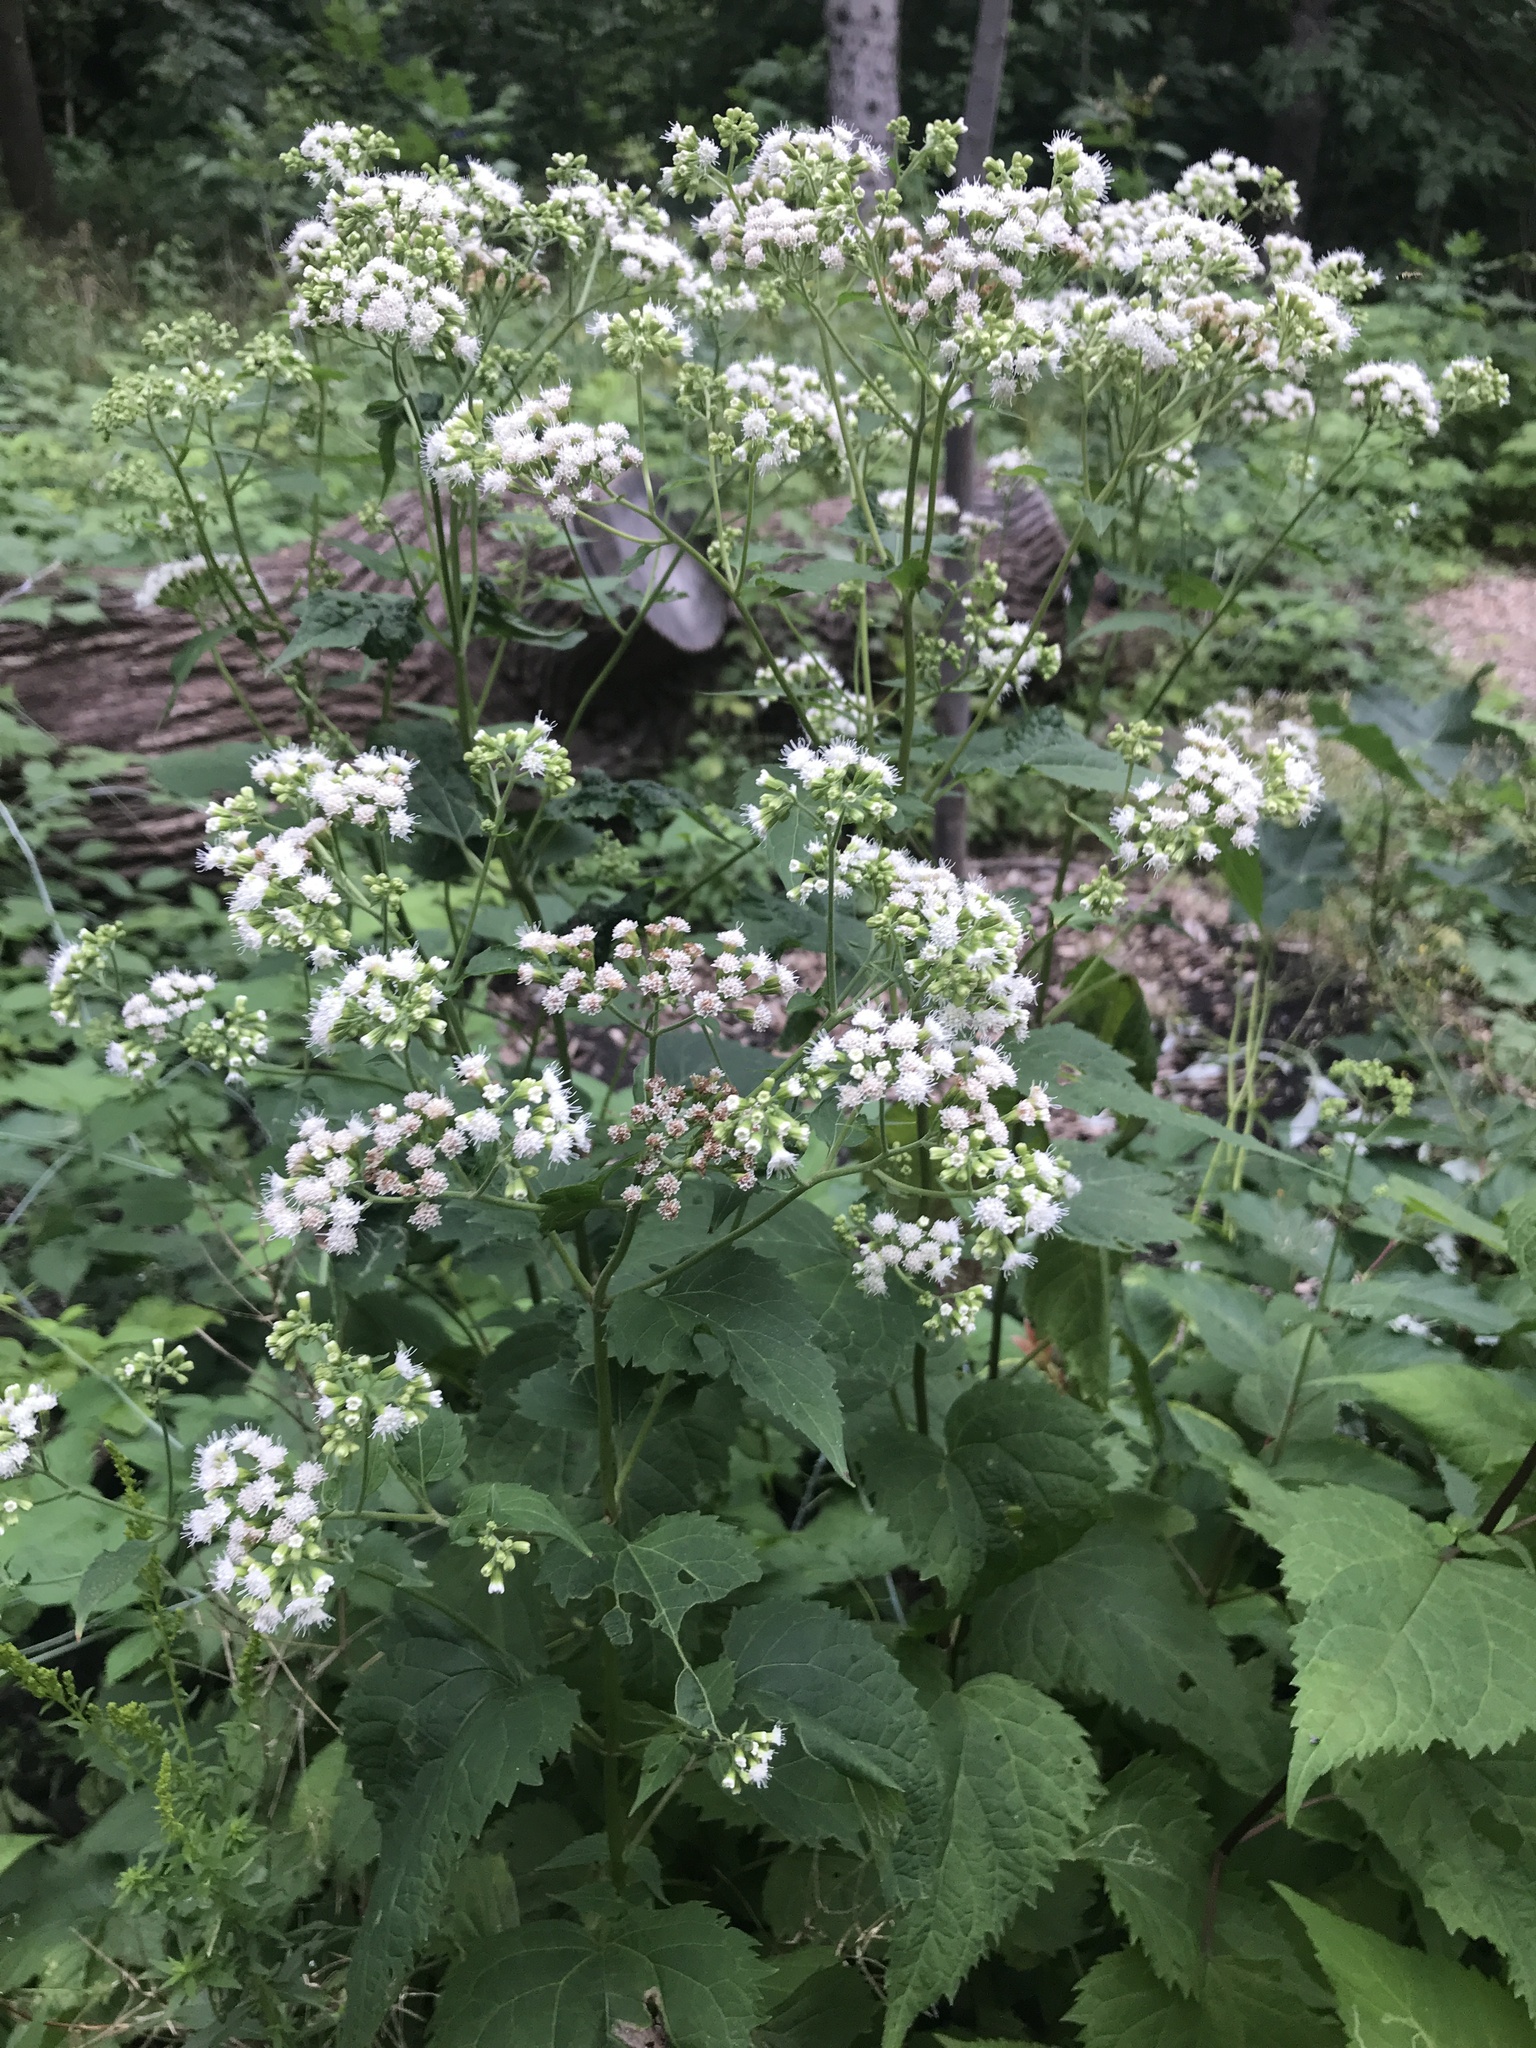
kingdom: Plantae
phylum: Tracheophyta
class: Magnoliopsida
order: Asterales
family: Asteraceae
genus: Ageratina
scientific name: Ageratina altissima
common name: White snakeroot
